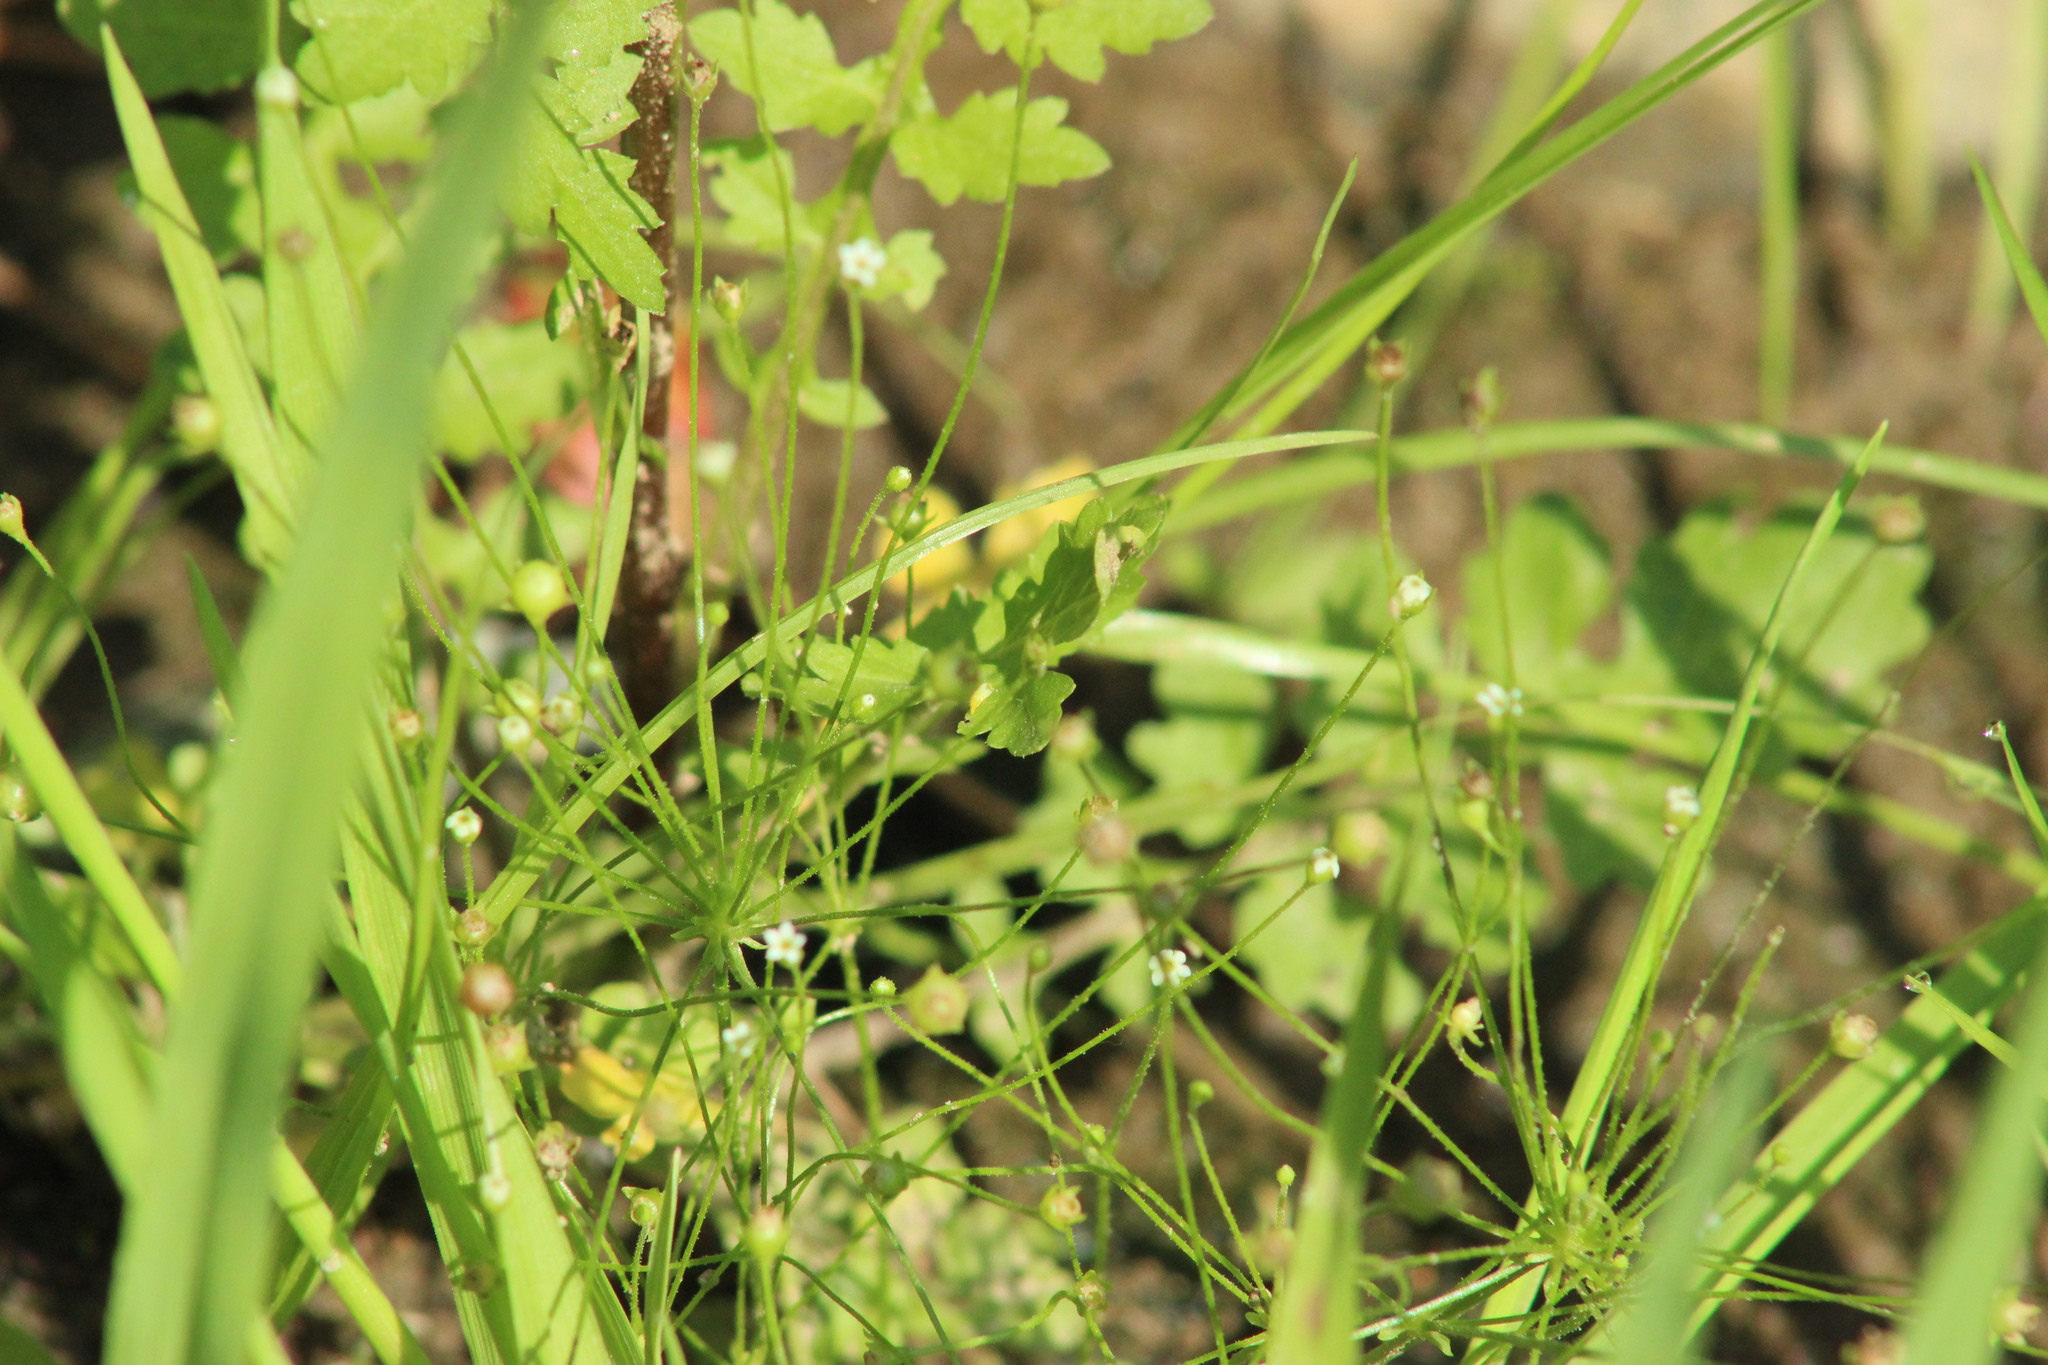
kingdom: Plantae
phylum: Tracheophyta
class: Magnoliopsida
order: Ericales
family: Primulaceae
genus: Androsace
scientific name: Androsace filiformis
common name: Filiform rock jasmine
